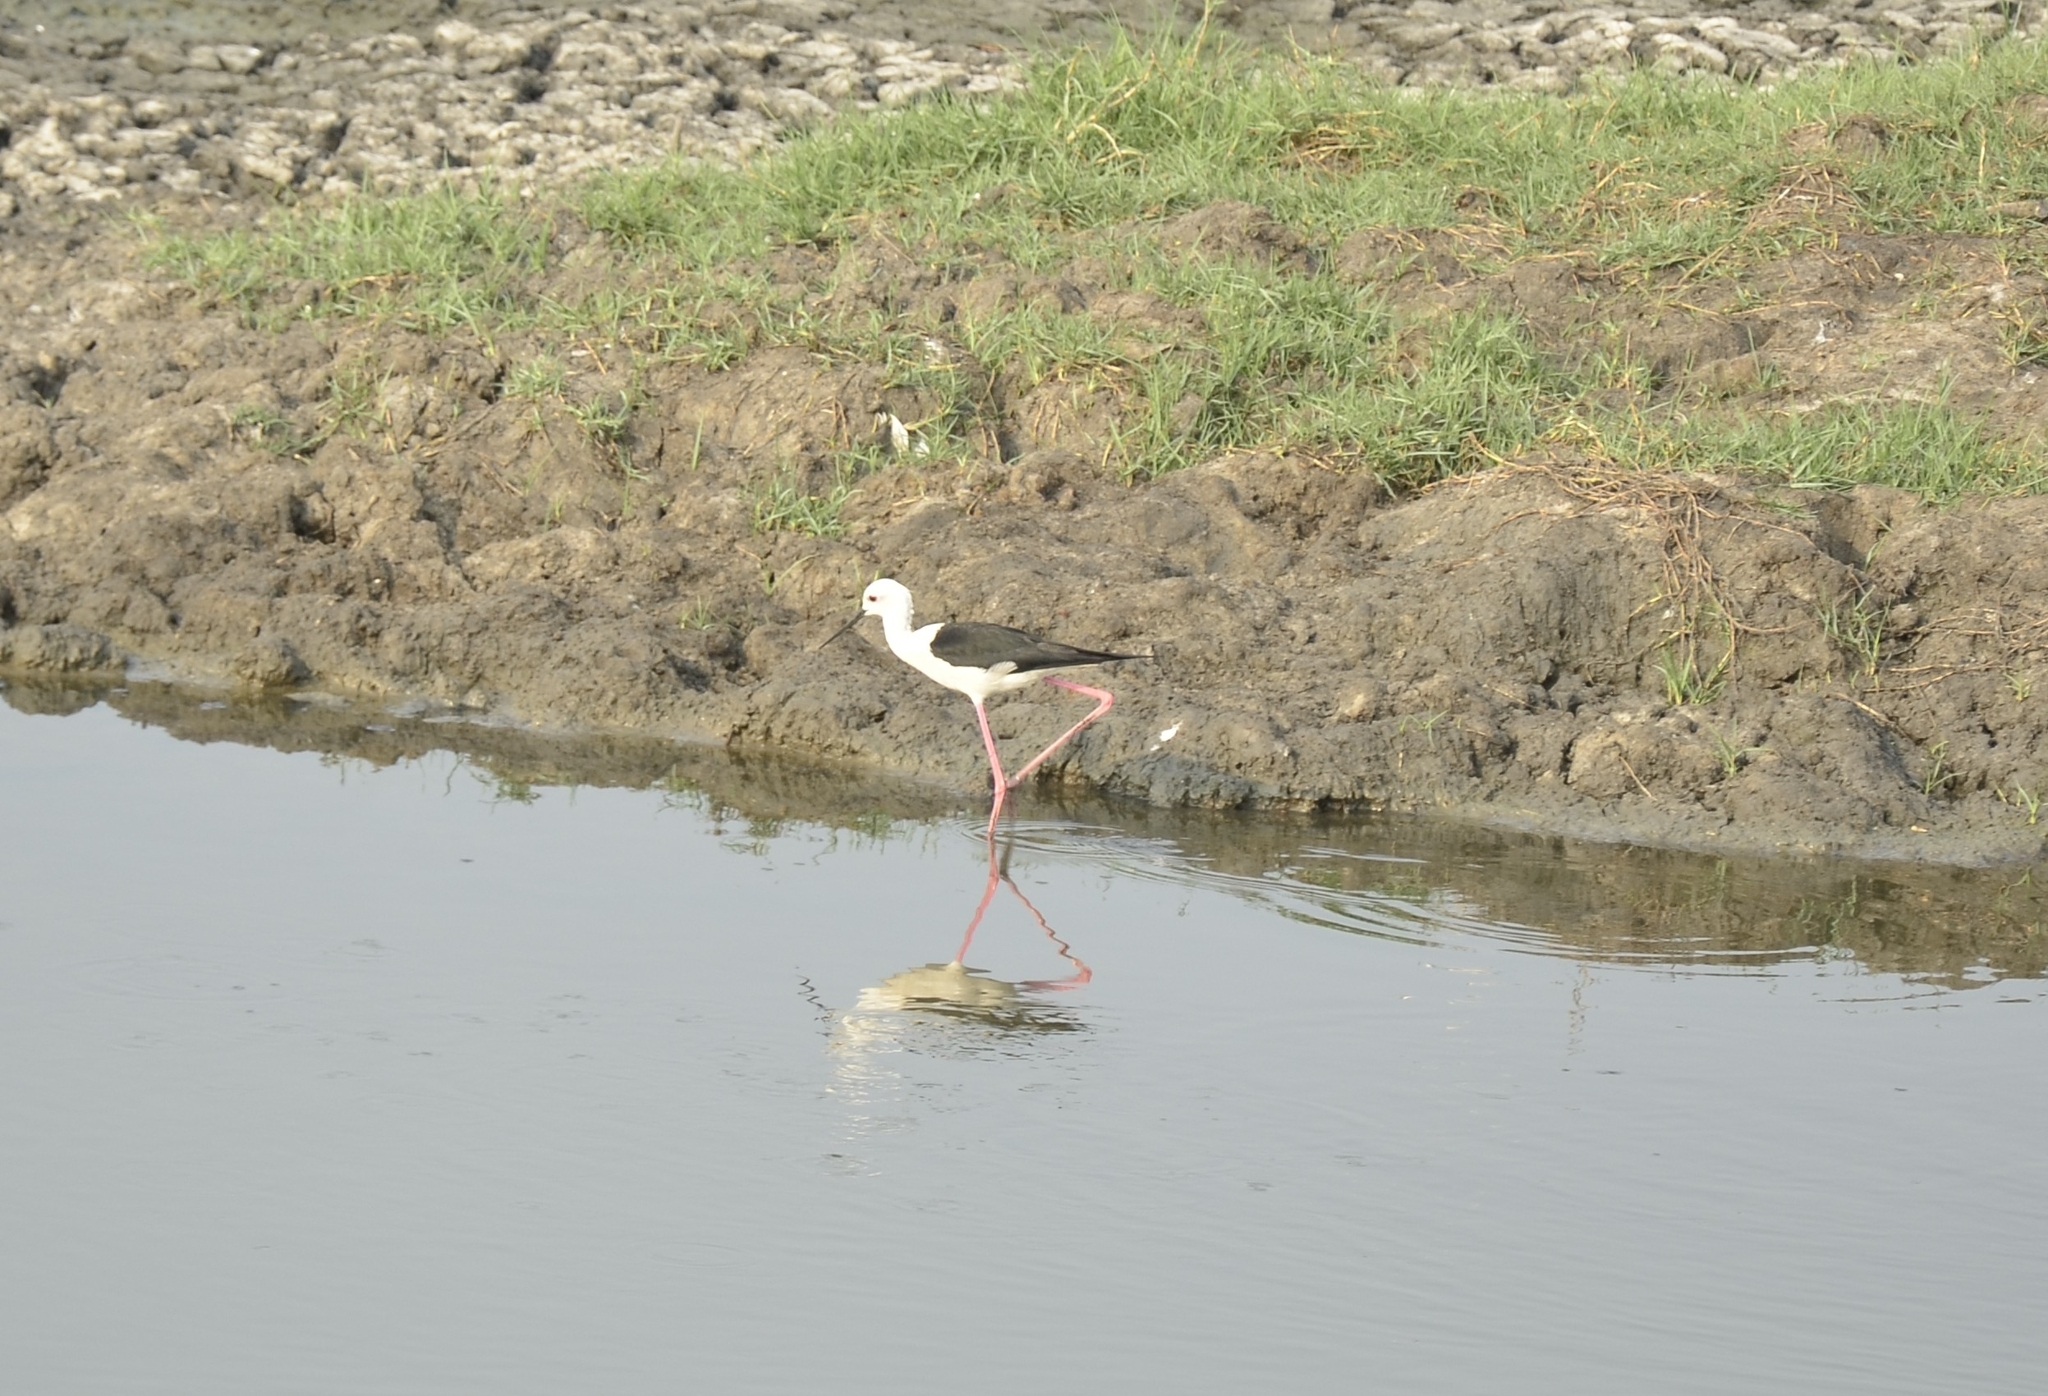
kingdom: Animalia
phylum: Chordata
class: Aves
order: Charadriiformes
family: Recurvirostridae
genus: Himantopus
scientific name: Himantopus himantopus
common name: Black-winged stilt
